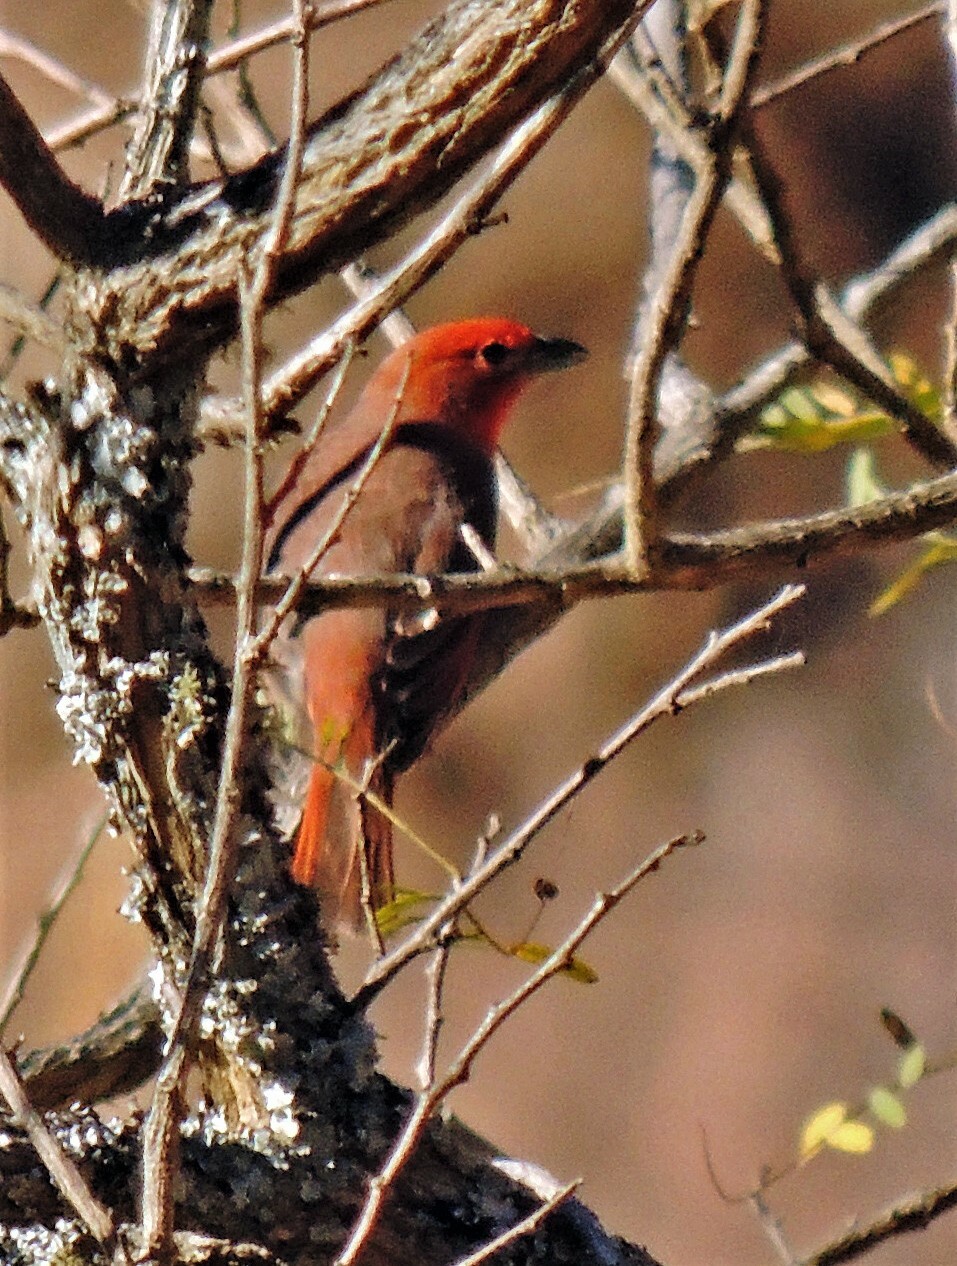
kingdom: Animalia
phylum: Chordata
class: Aves
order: Passeriformes
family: Cardinalidae
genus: Piranga
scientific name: Piranga flava
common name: Red tanager
